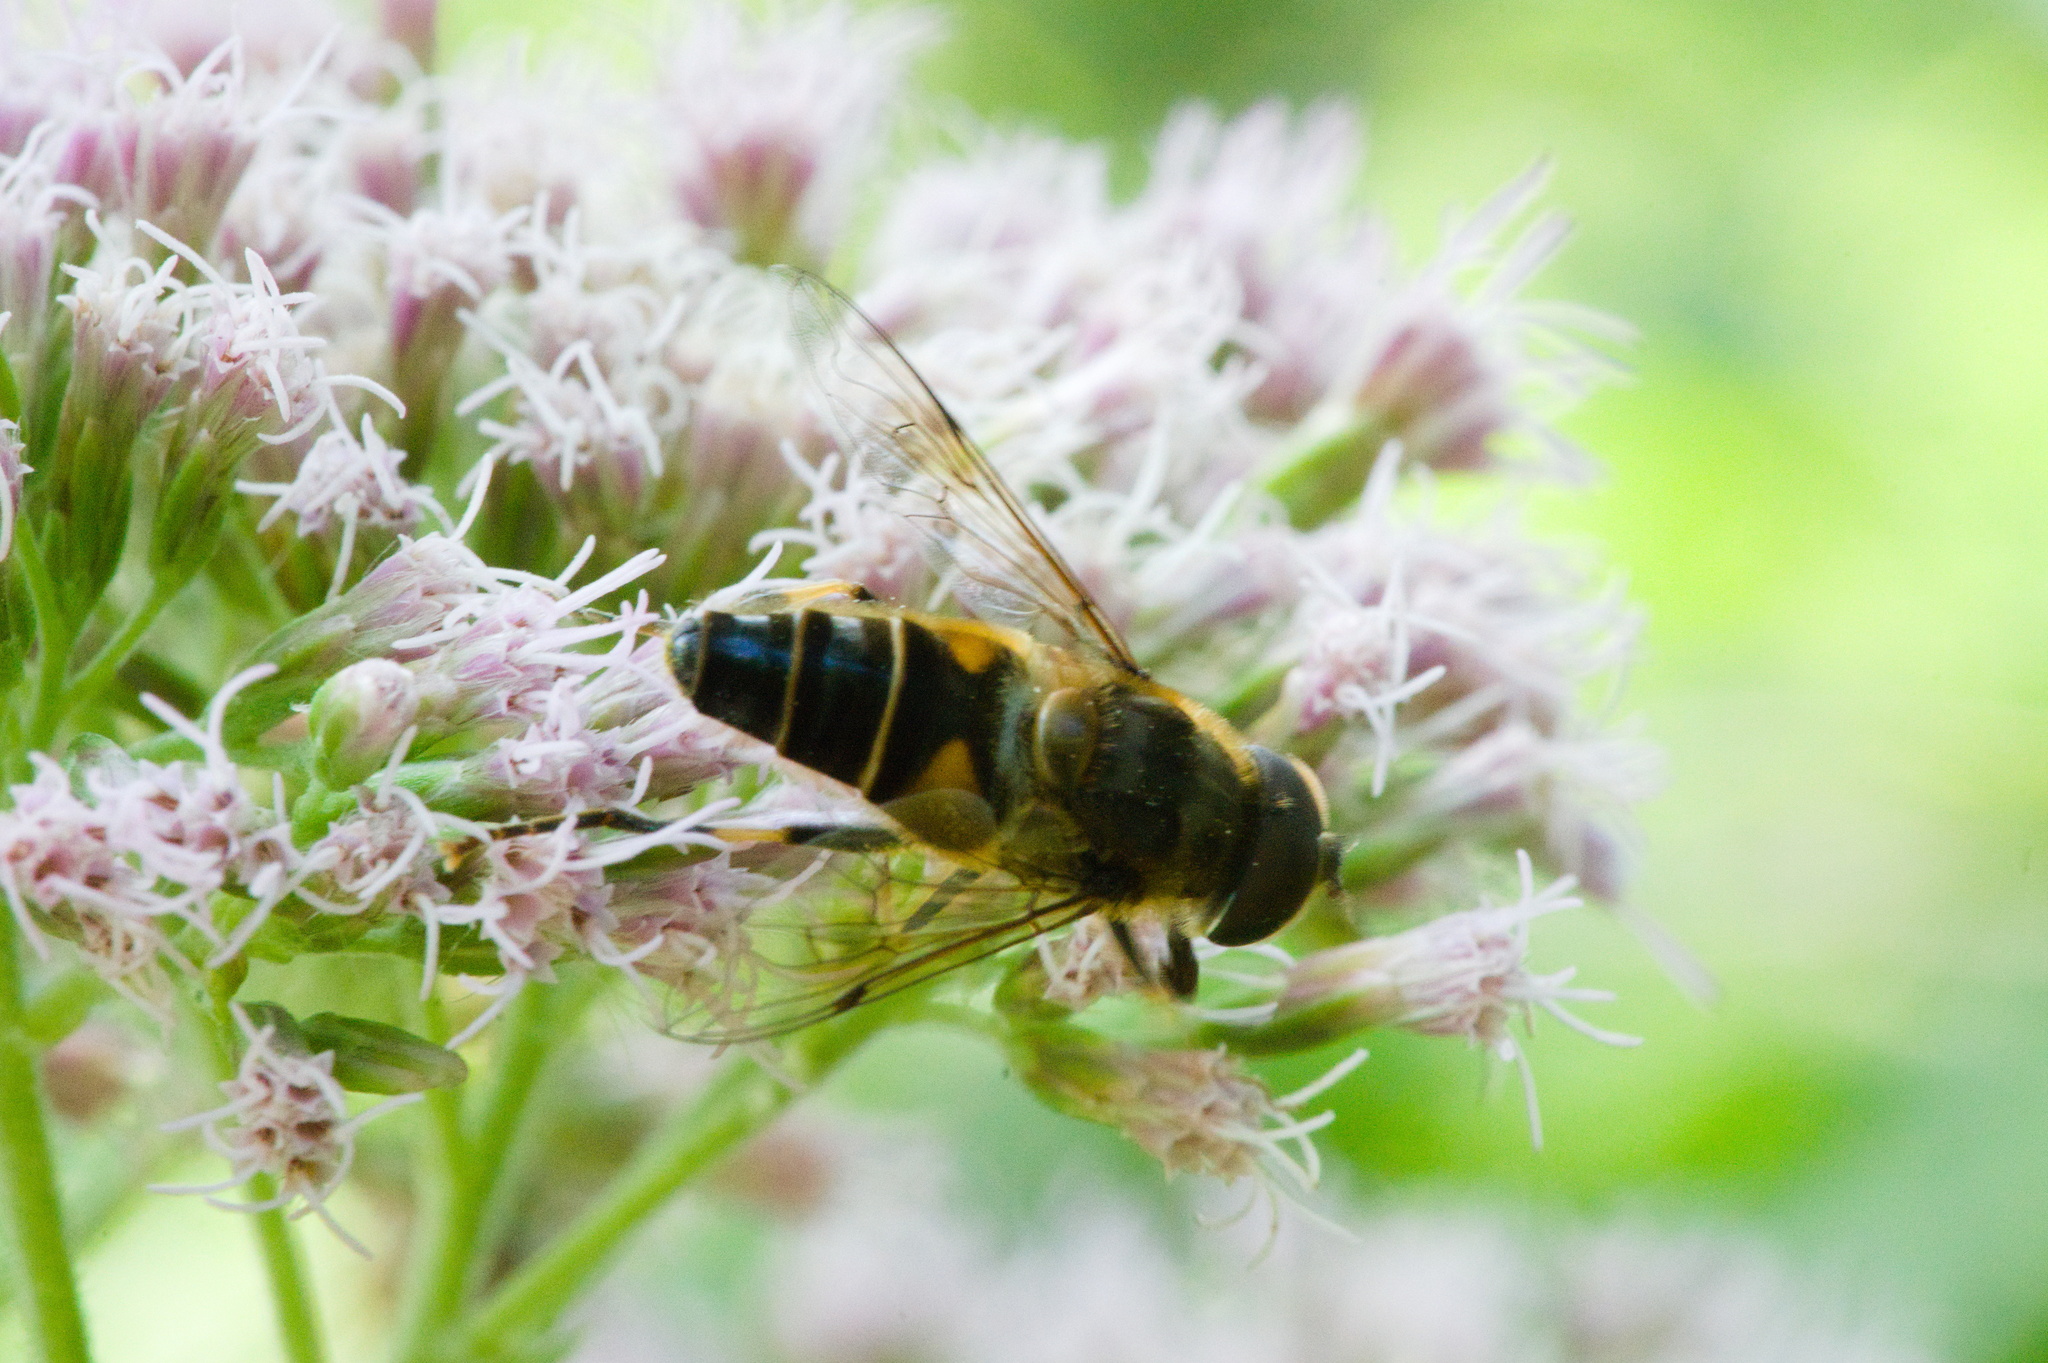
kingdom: Animalia
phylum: Arthropoda
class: Insecta
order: Diptera
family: Syrphidae
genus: Eristalis
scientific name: Eristalis pertinax
